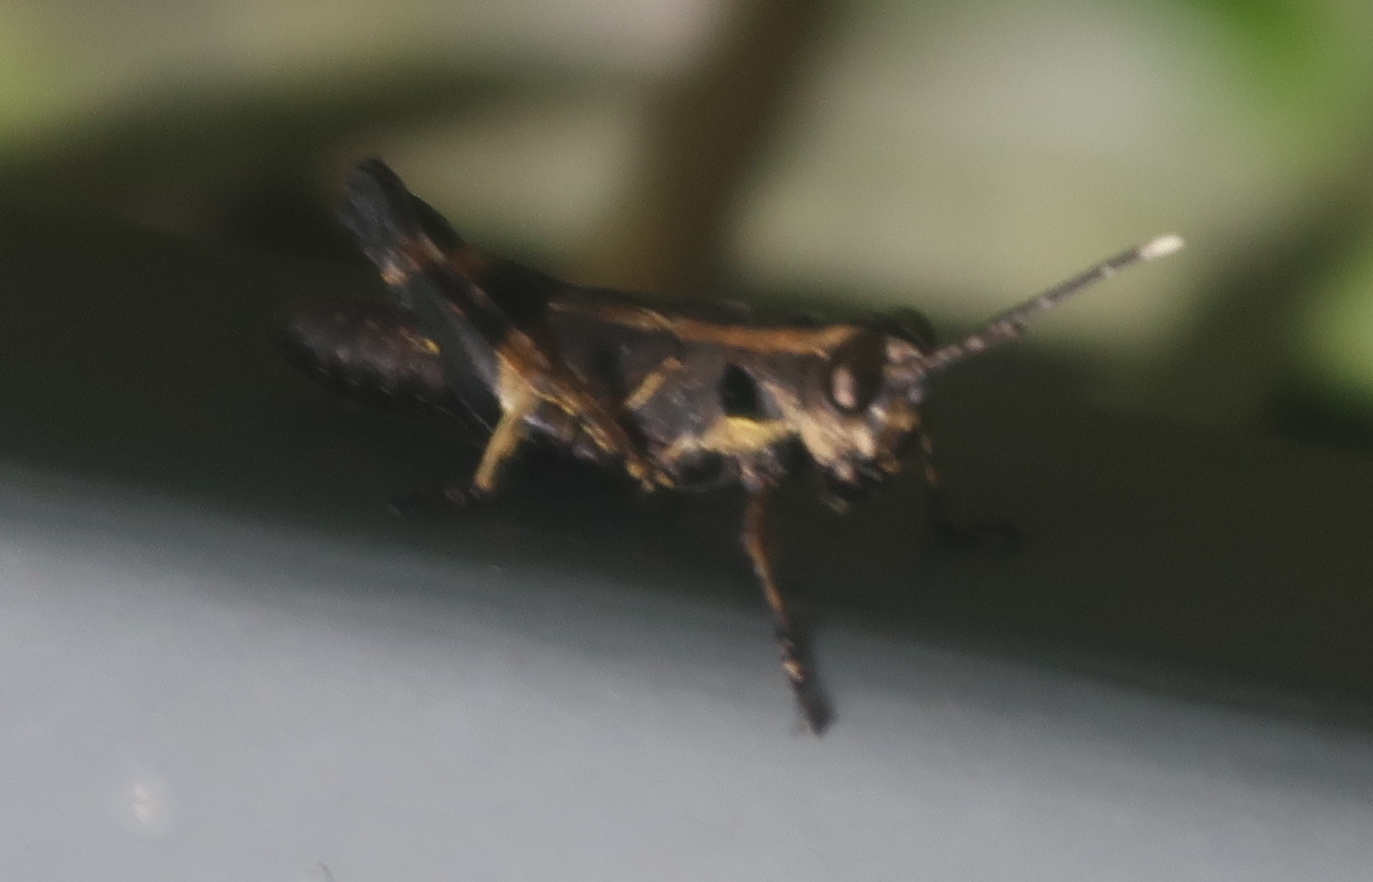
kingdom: Animalia
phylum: Arthropoda
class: Insecta
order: Orthoptera
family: Acrididae
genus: Traulia
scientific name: Traulia azureipennis
